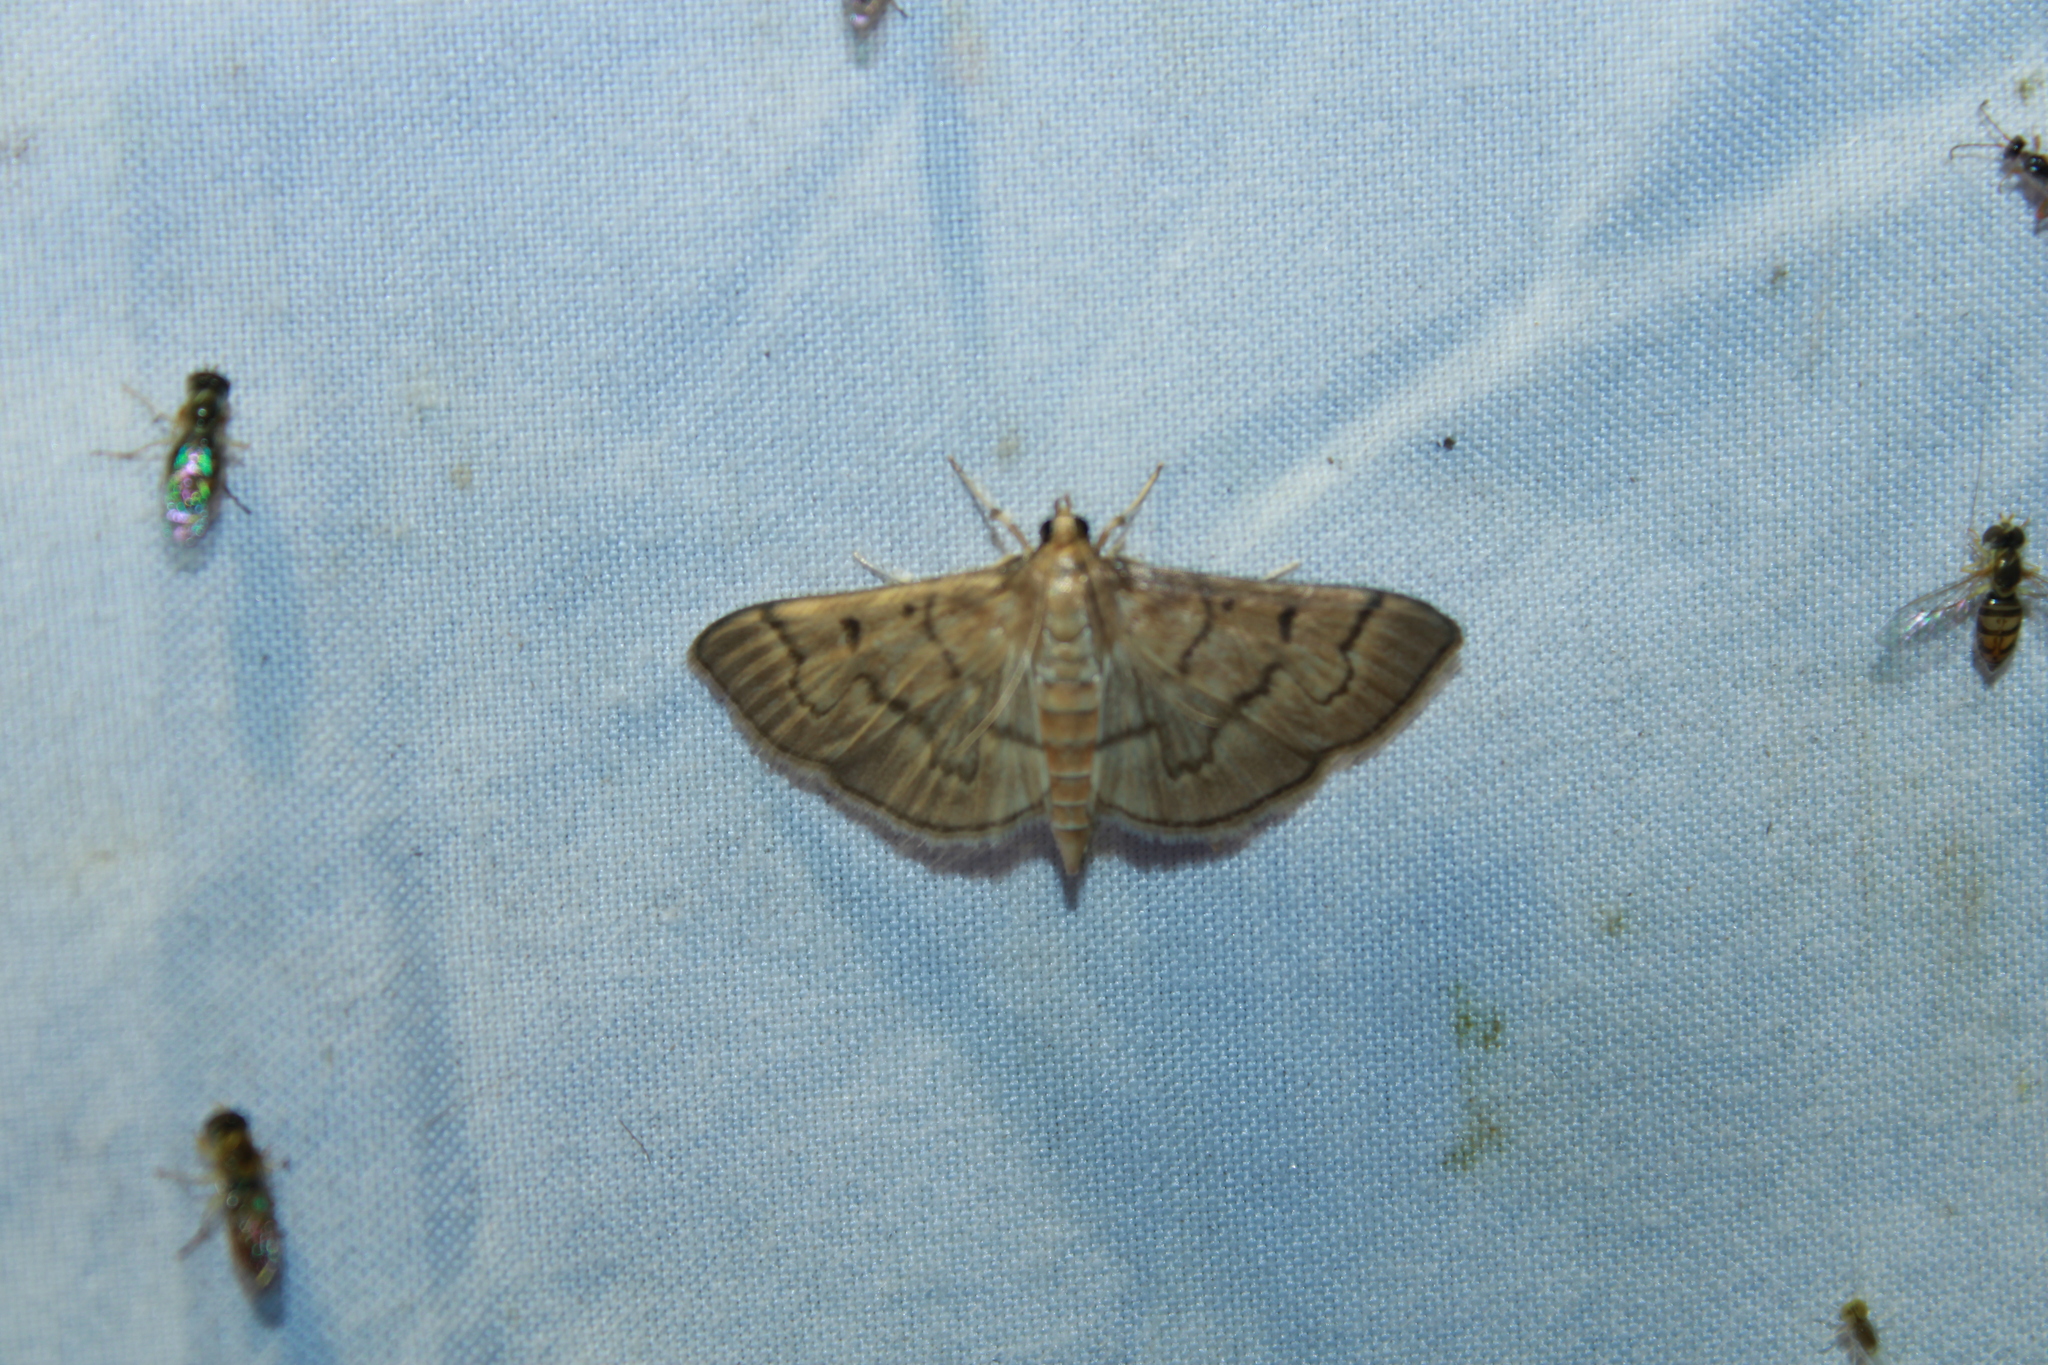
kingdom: Animalia
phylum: Arthropoda
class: Insecta
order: Lepidoptera
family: Crambidae
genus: Herpetogramma
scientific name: Herpetogramma theseusalis
